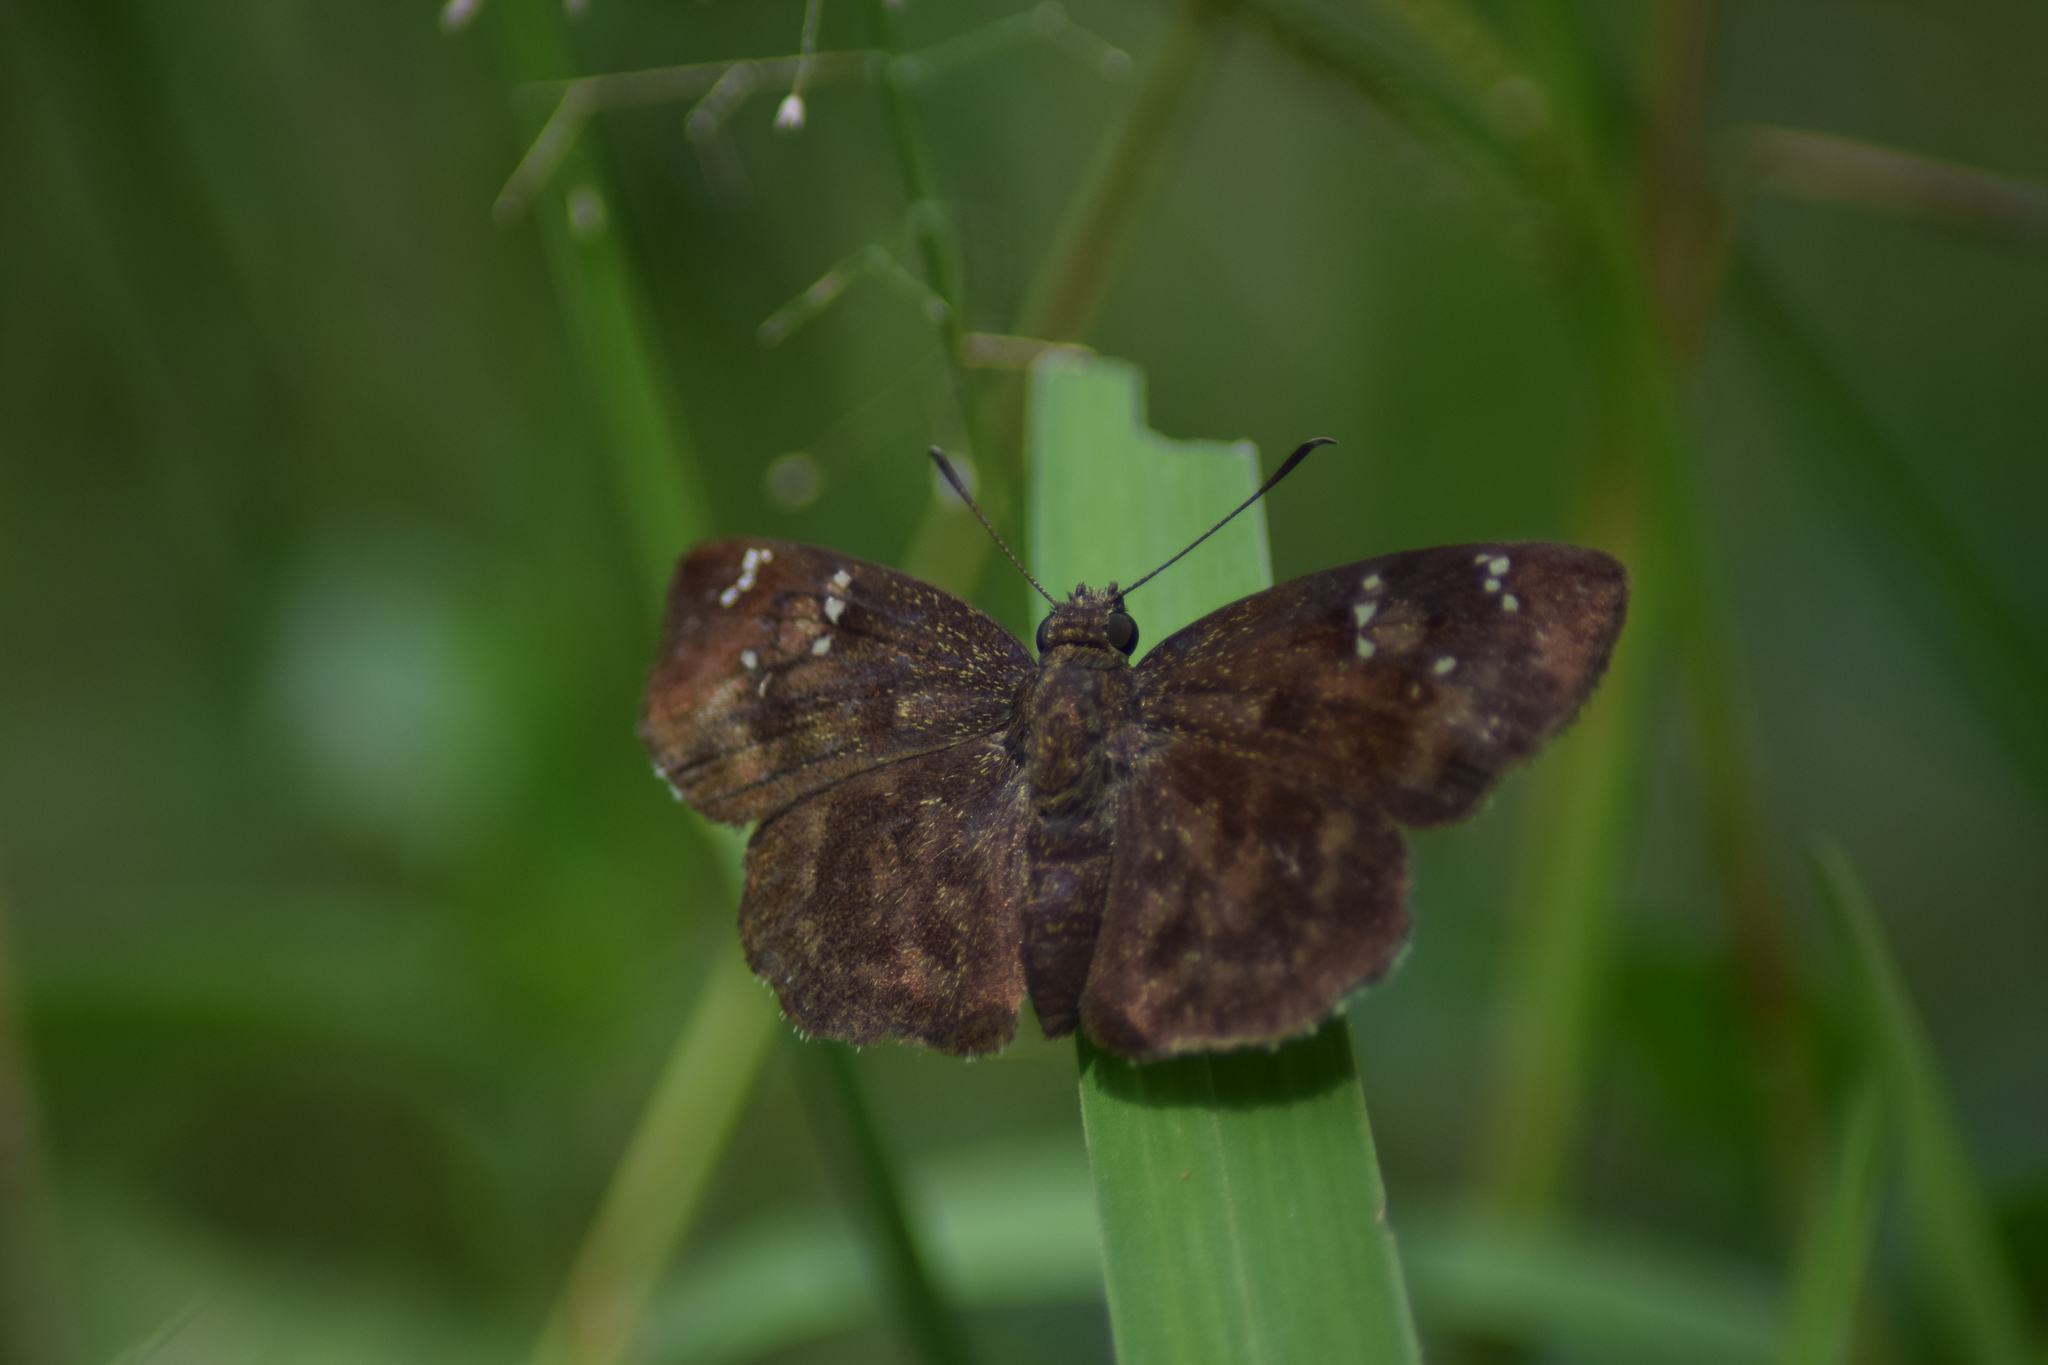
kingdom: Animalia
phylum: Arthropoda
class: Insecta
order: Lepidoptera
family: Hesperiidae
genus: Sarangesa
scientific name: Sarangesa dasahara
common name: Common small flat
